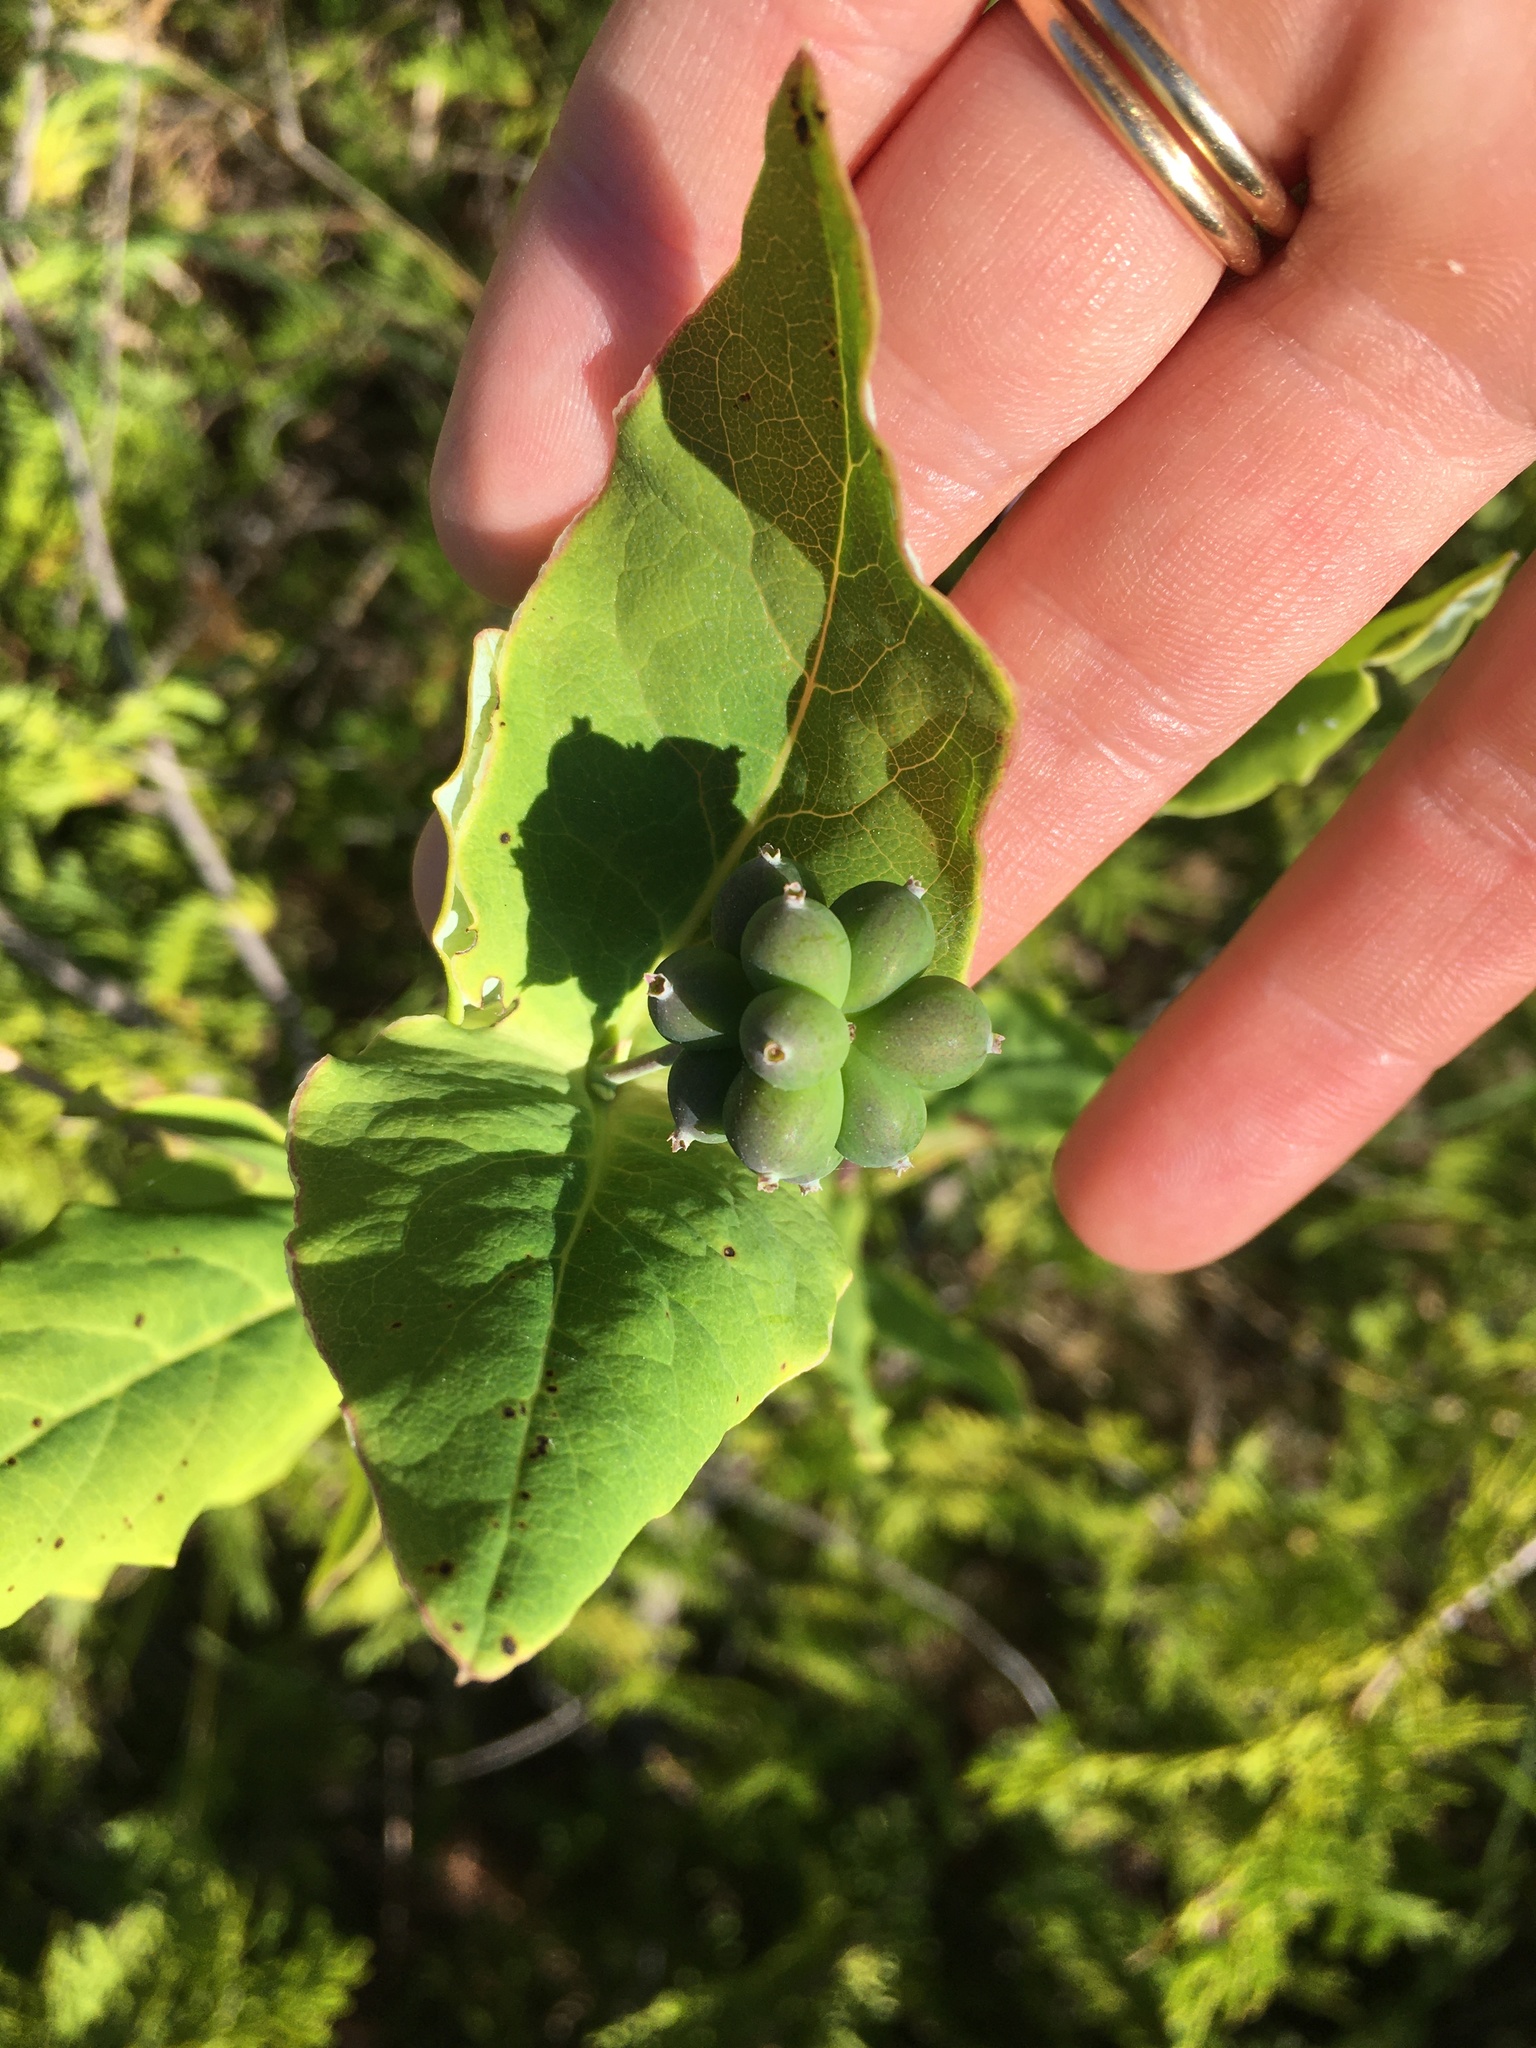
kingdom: Plantae
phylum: Tracheophyta
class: Magnoliopsida
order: Dipsacales
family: Caprifoliaceae
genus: Lonicera
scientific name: Lonicera dioica
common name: Limber honeysuckle
